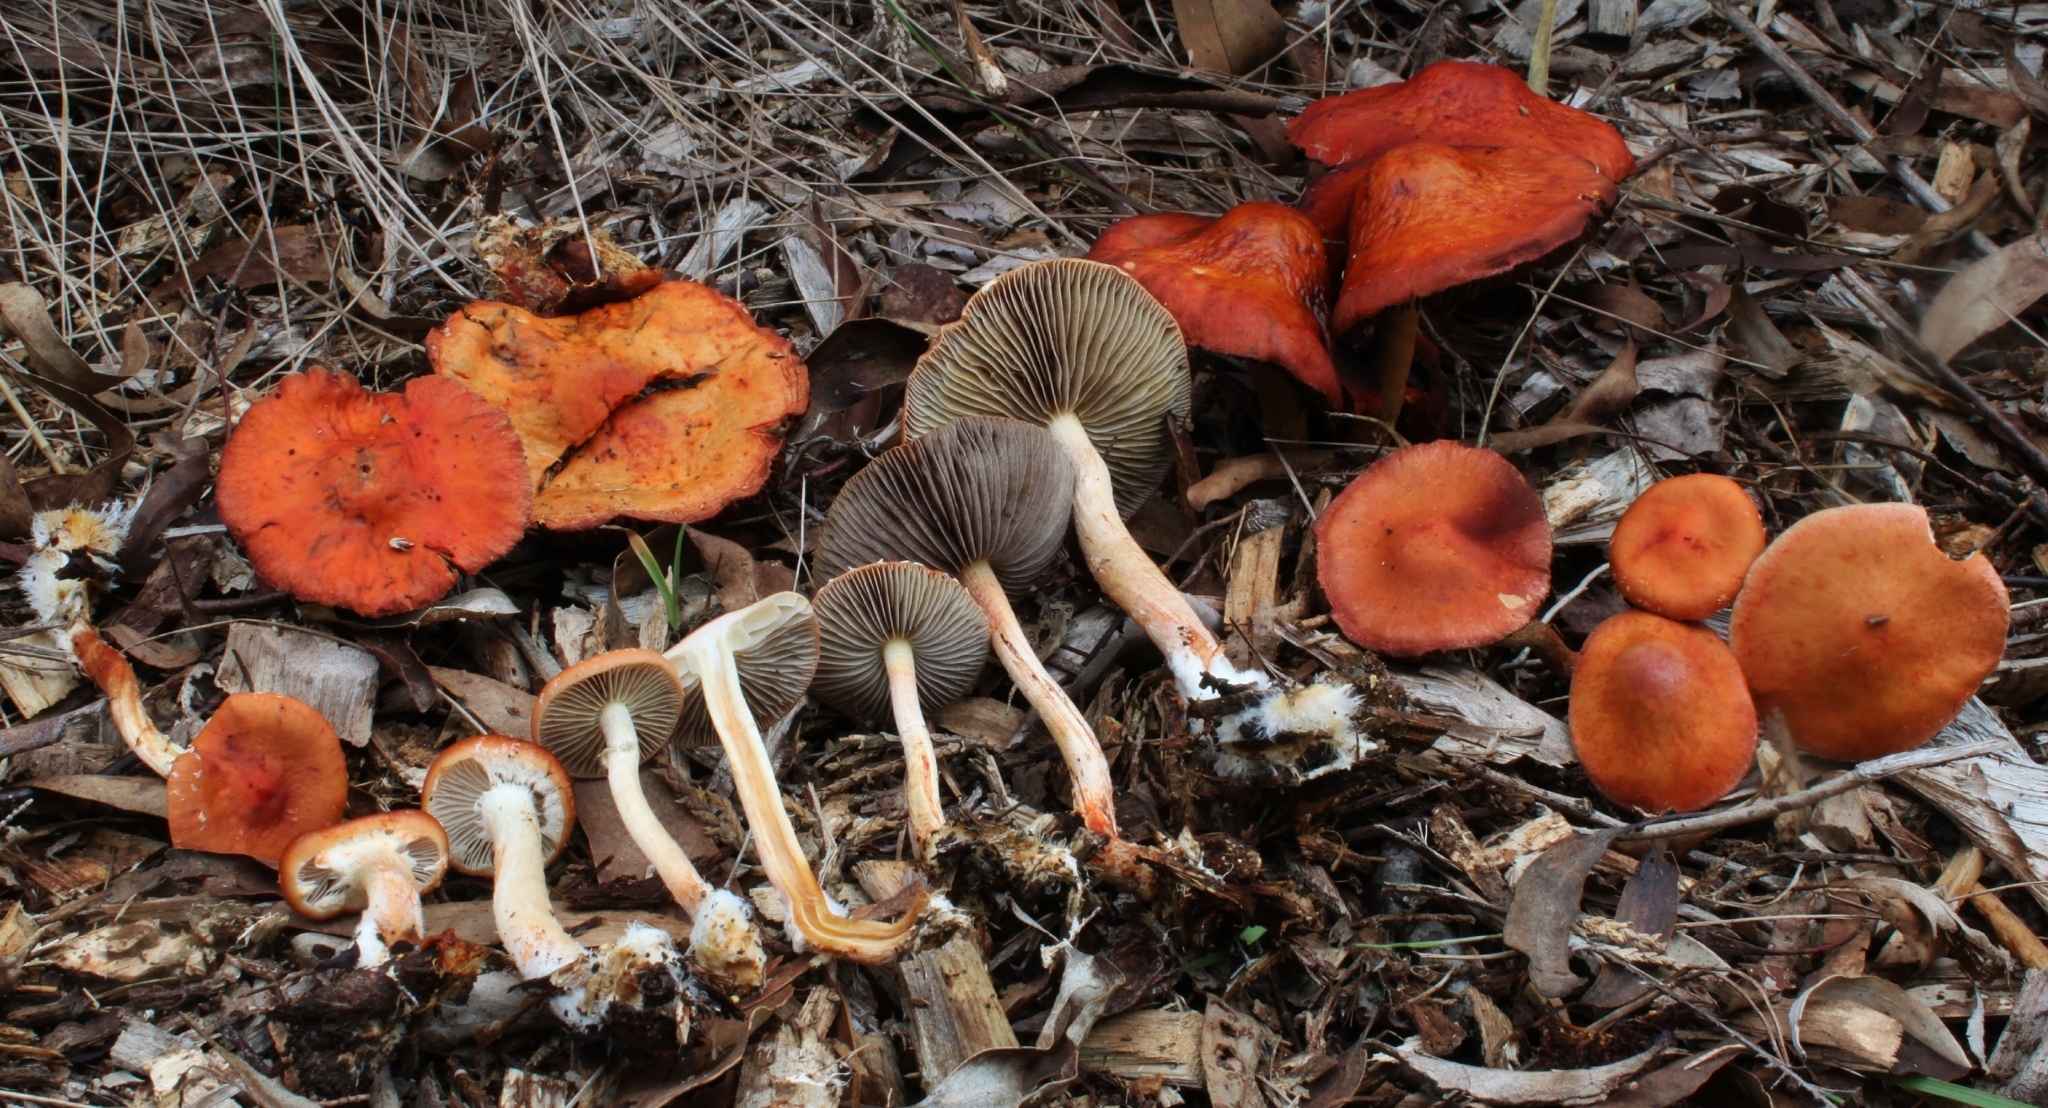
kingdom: Fungi
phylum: Basidiomycota
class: Agaricomycetes
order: Agaricales
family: Strophariaceae
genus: Leratiomyces
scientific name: Leratiomyces ceres
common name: Redlead roundhead
